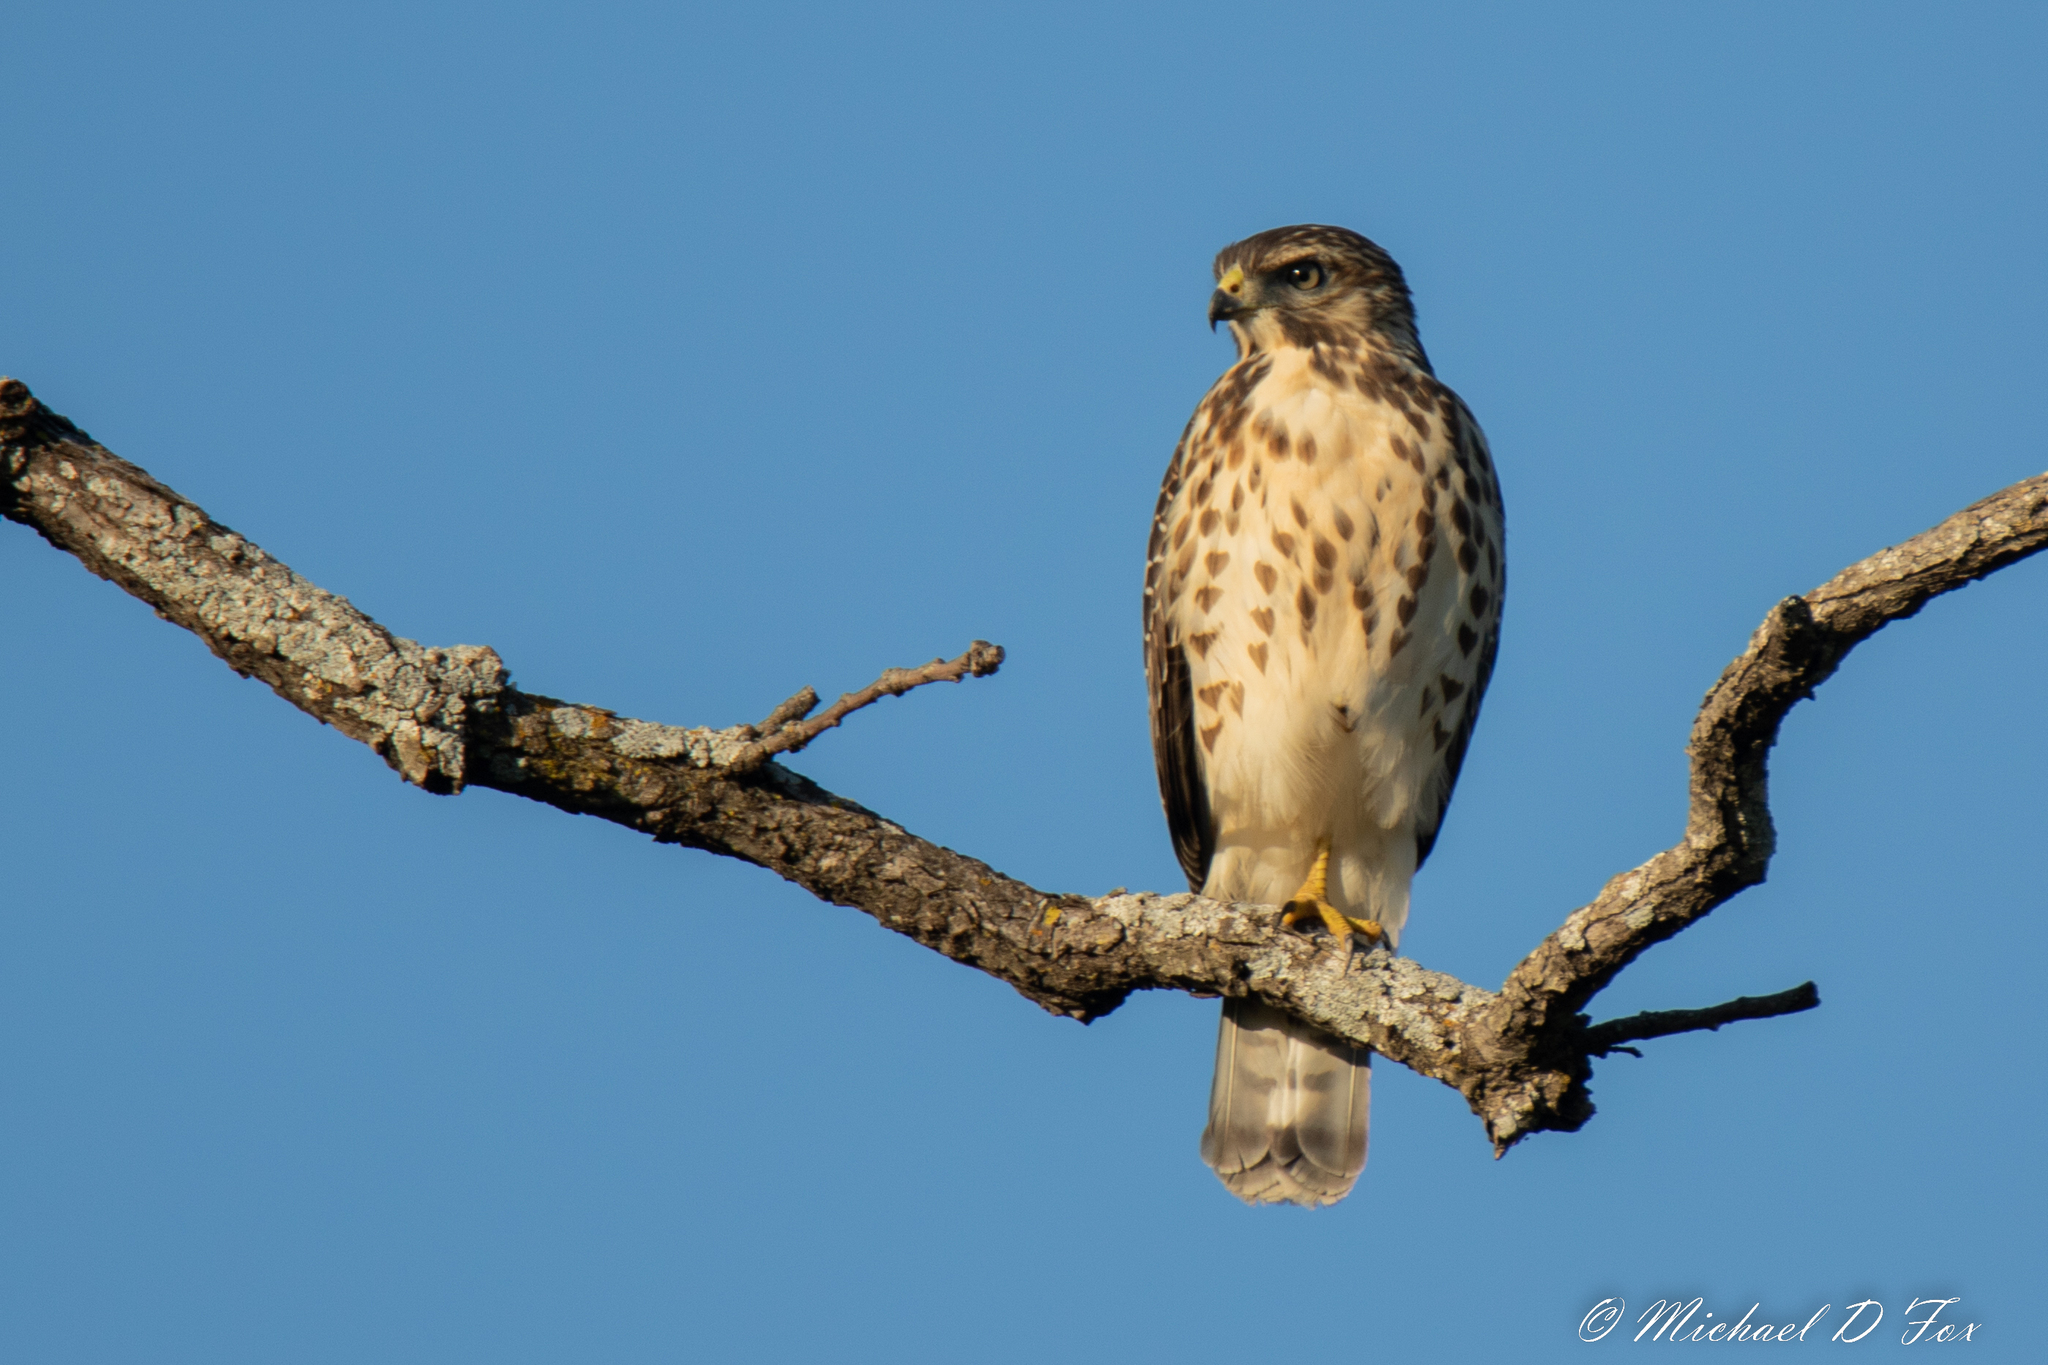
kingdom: Animalia
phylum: Chordata
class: Aves
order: Accipitriformes
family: Accipitridae
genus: Buteo
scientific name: Buteo platypterus
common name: Broad-winged hawk
